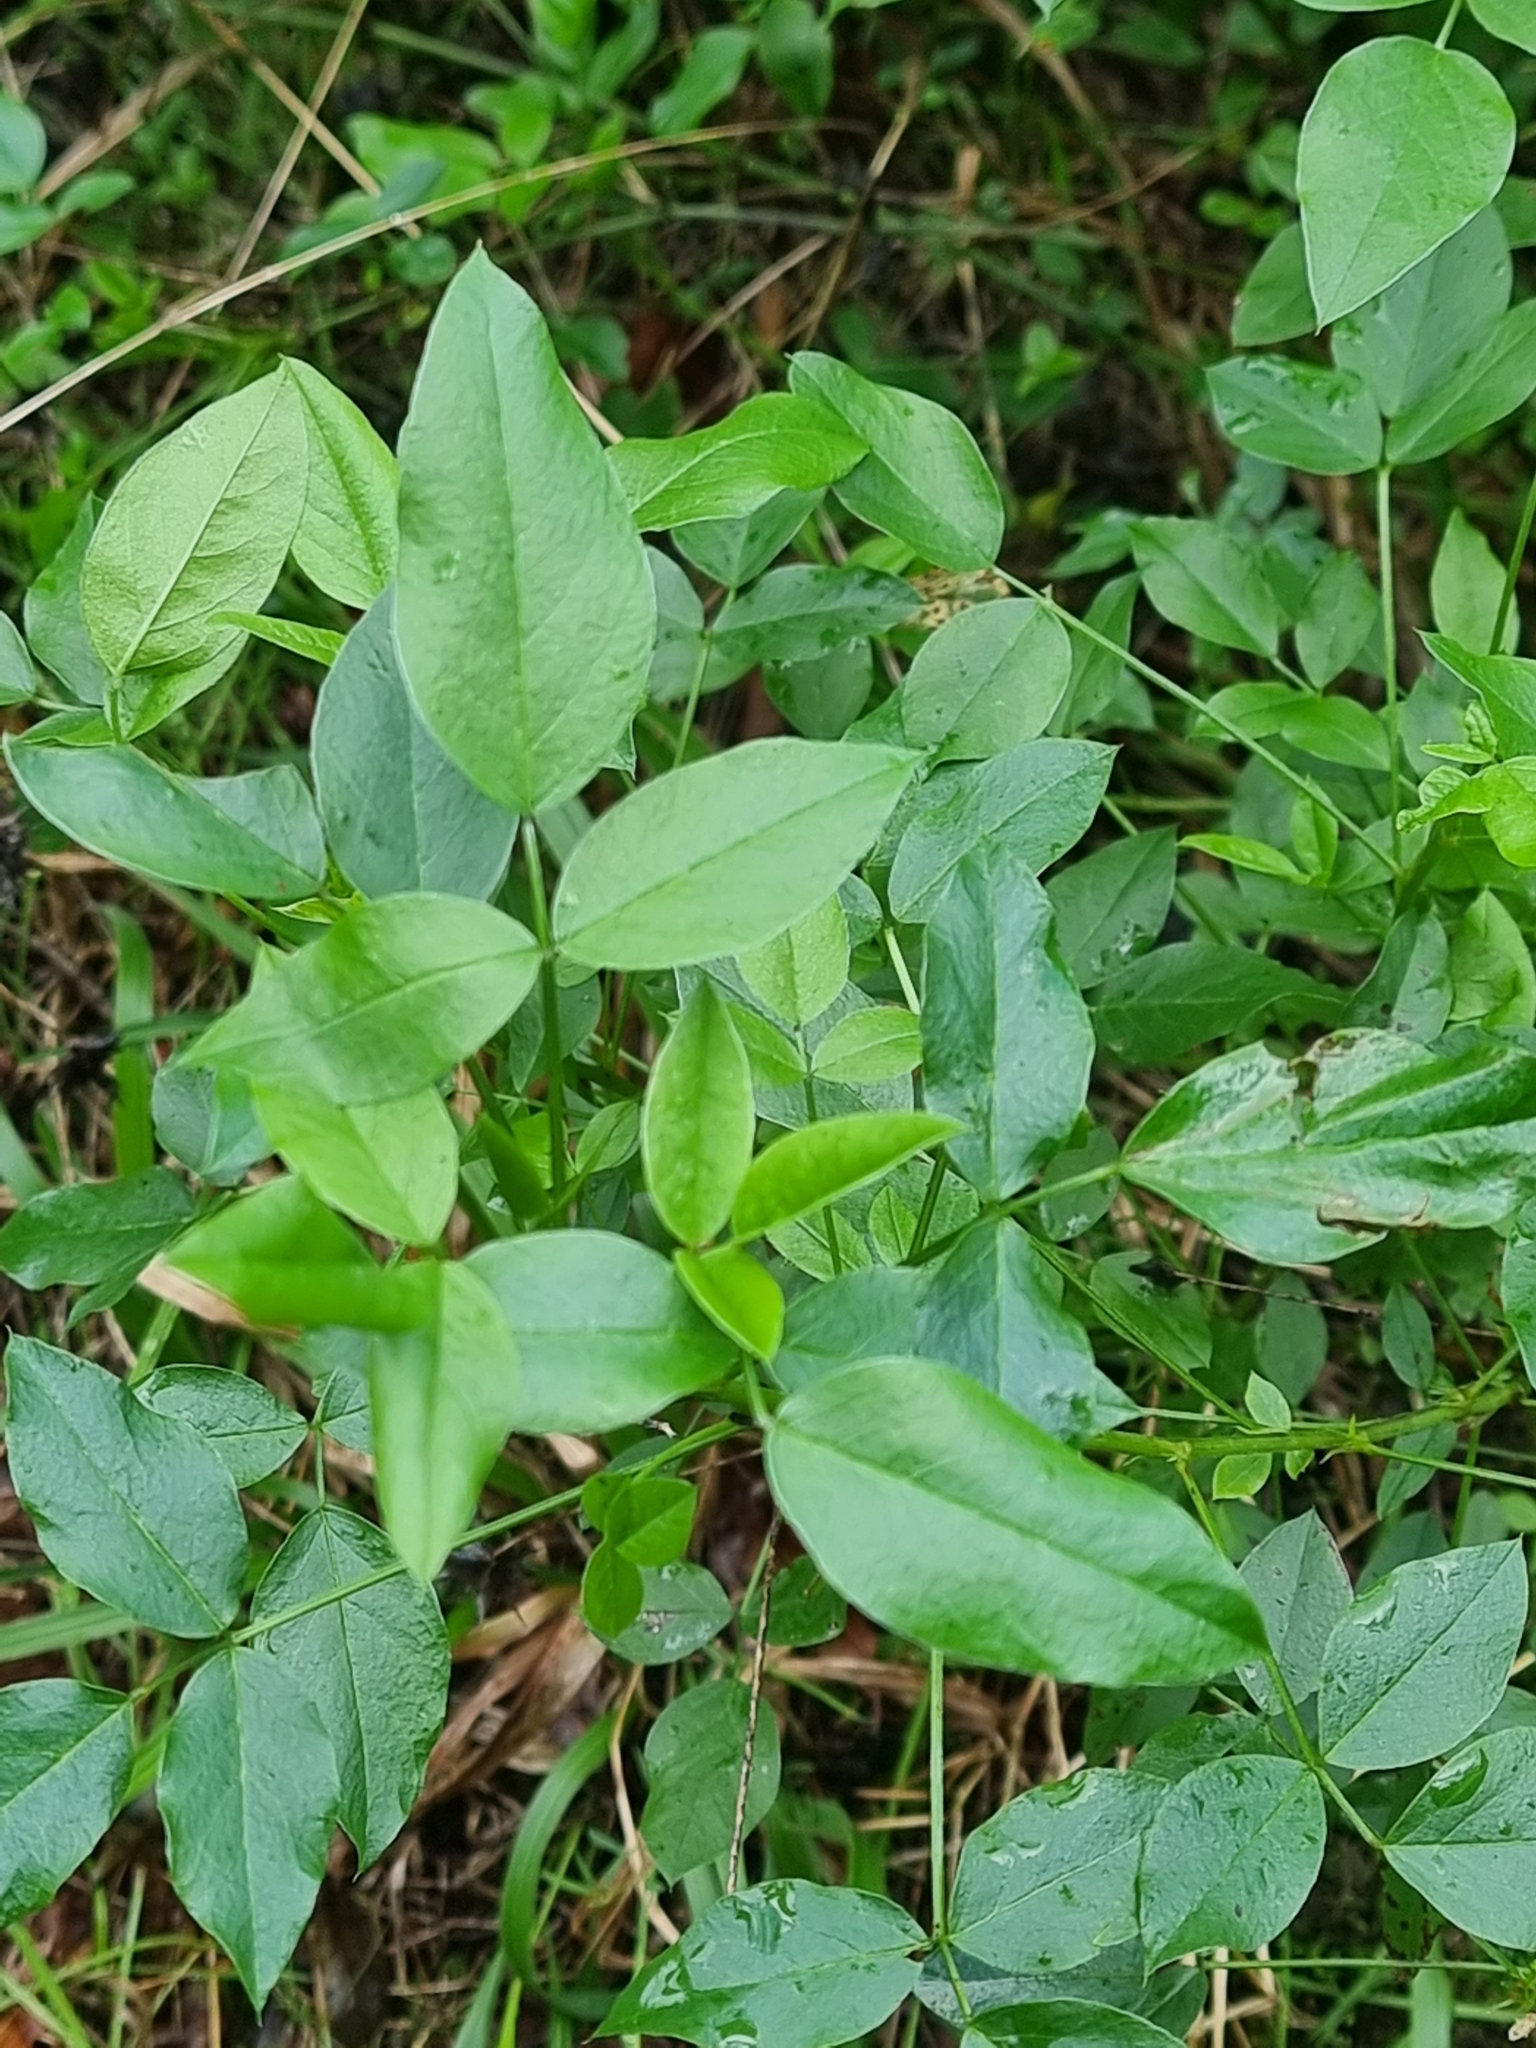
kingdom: Plantae
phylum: Tracheophyta
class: Magnoliopsida
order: Fabales
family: Fabaceae
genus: Bituminaria
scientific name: Bituminaria bituminosa
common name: Arabian pea
